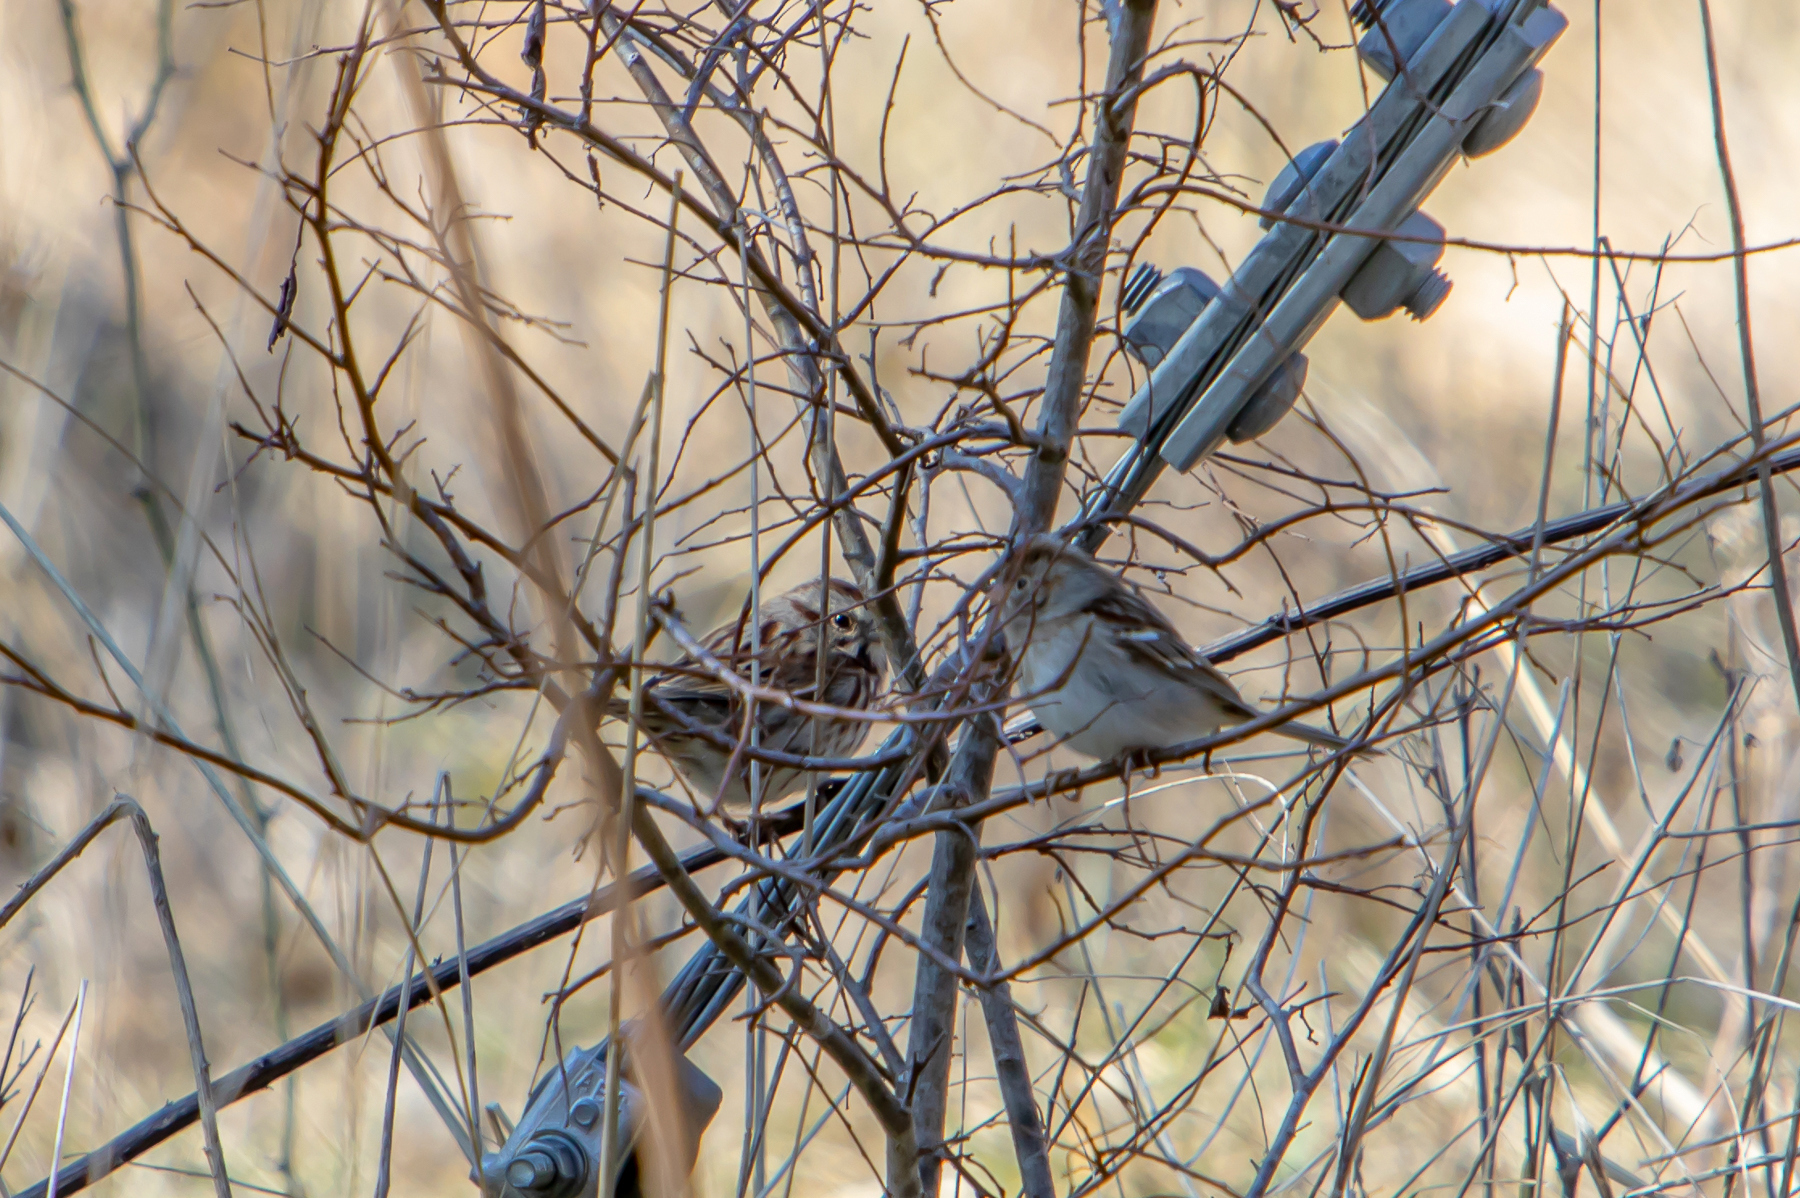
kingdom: Animalia
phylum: Chordata
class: Aves
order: Passeriformes
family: Passerellidae
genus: Melospiza
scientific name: Melospiza melodia
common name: Song sparrow
